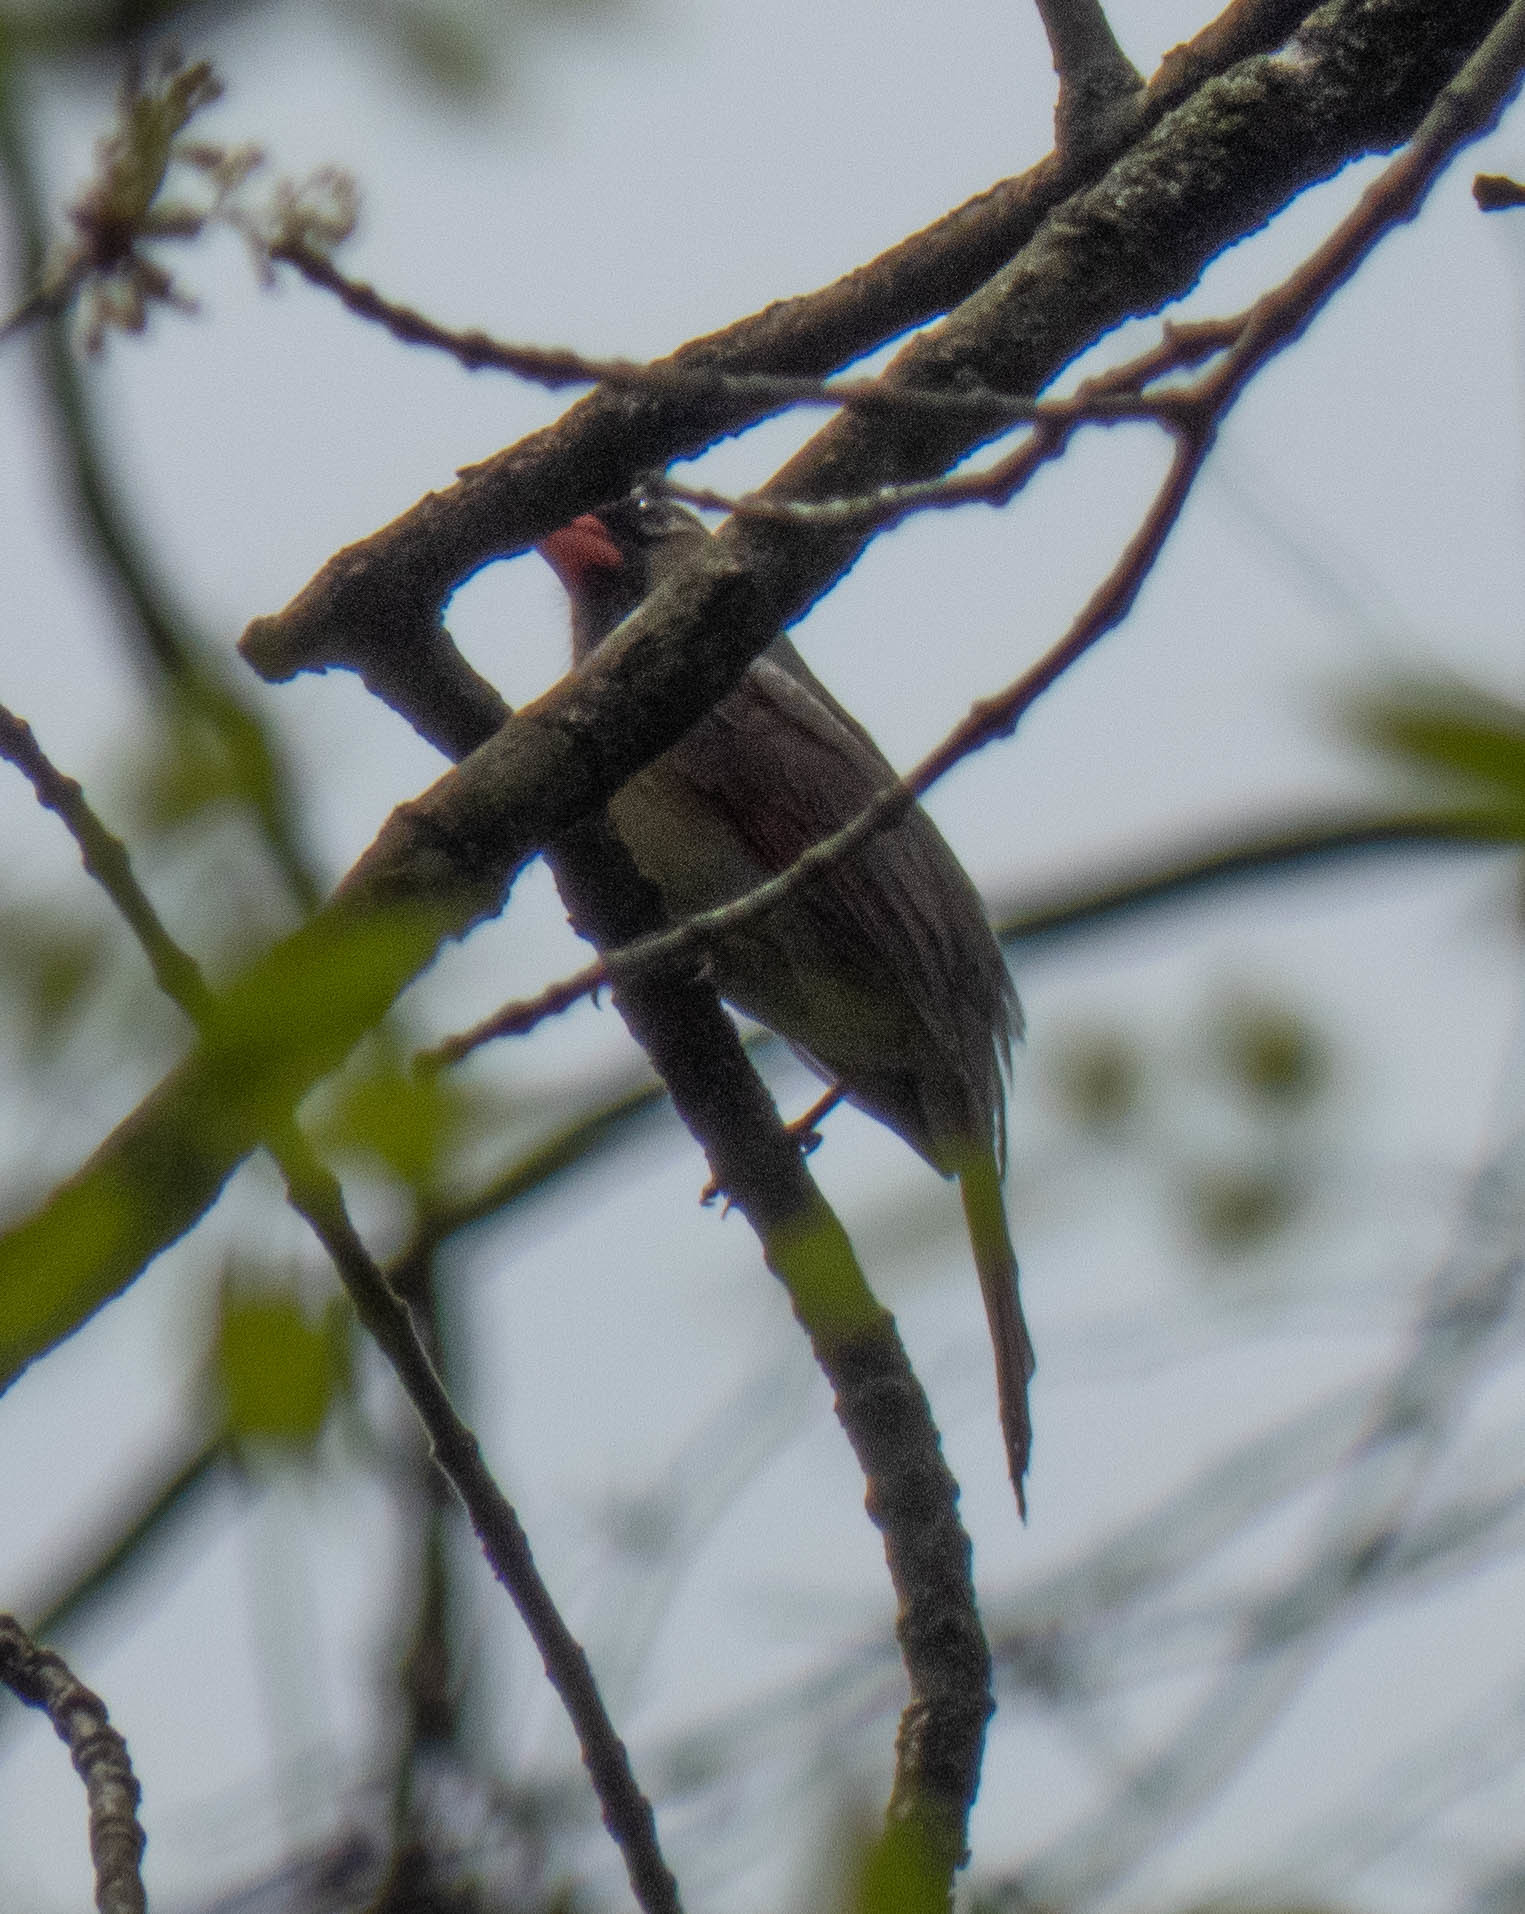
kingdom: Animalia
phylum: Chordata
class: Aves
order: Passeriformes
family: Cardinalidae
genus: Cardinalis
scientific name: Cardinalis cardinalis
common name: Northern cardinal
